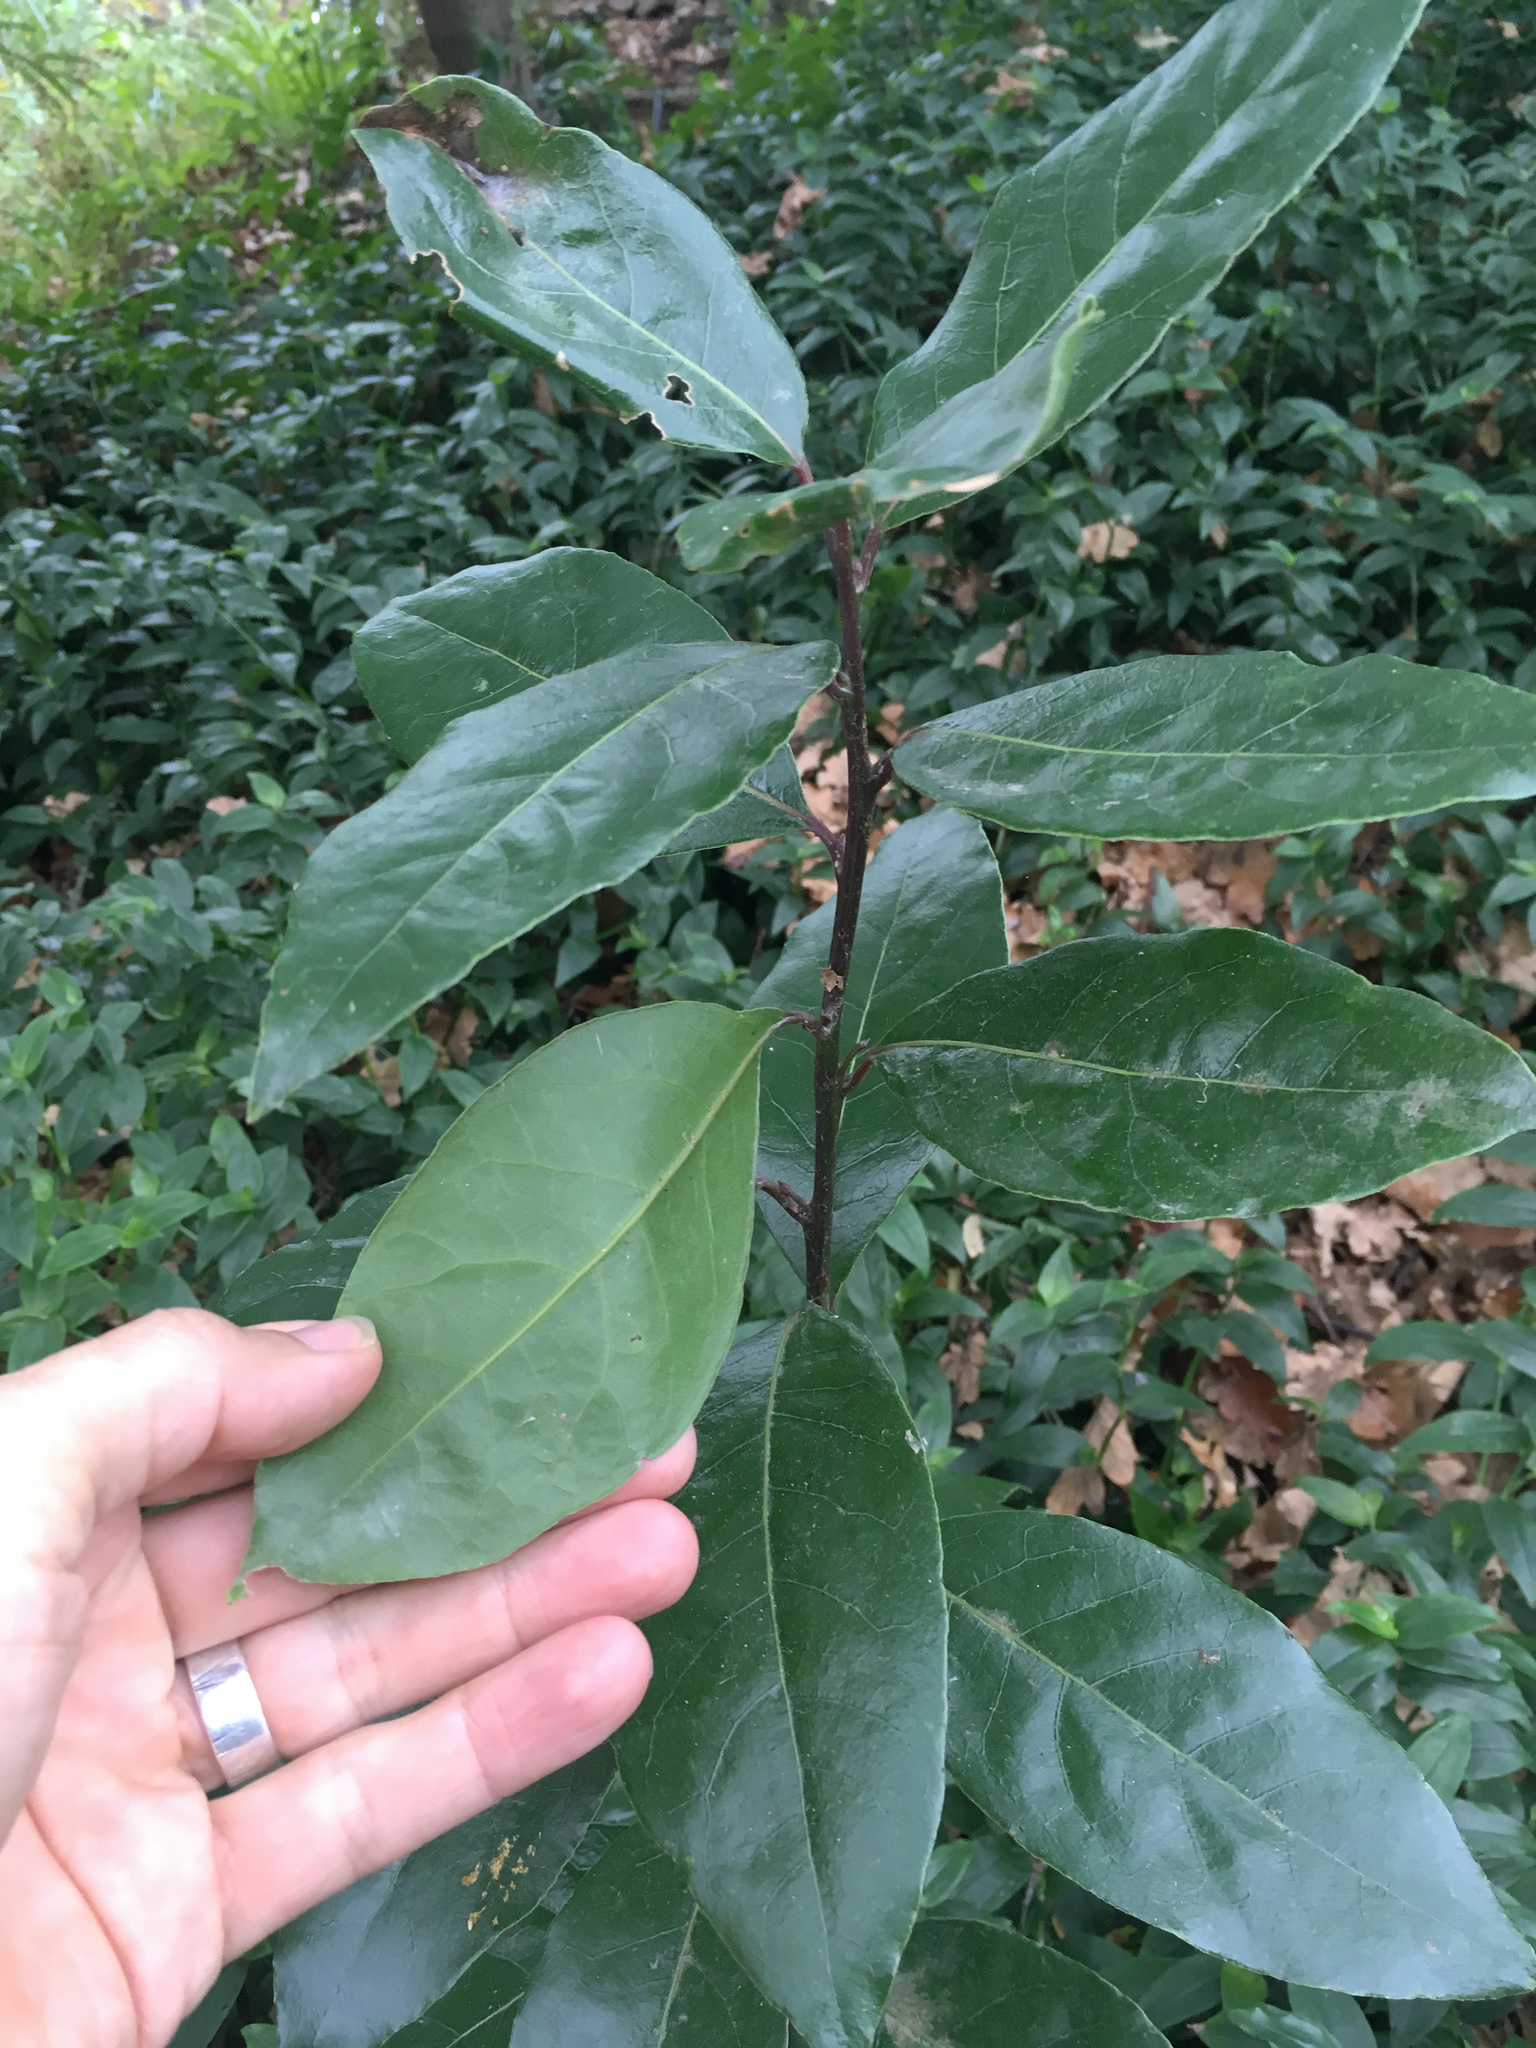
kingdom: Plantae
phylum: Tracheophyta
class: Magnoliopsida
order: Laurales
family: Lauraceae
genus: Laurus
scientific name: Laurus nobilis
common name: Bay
